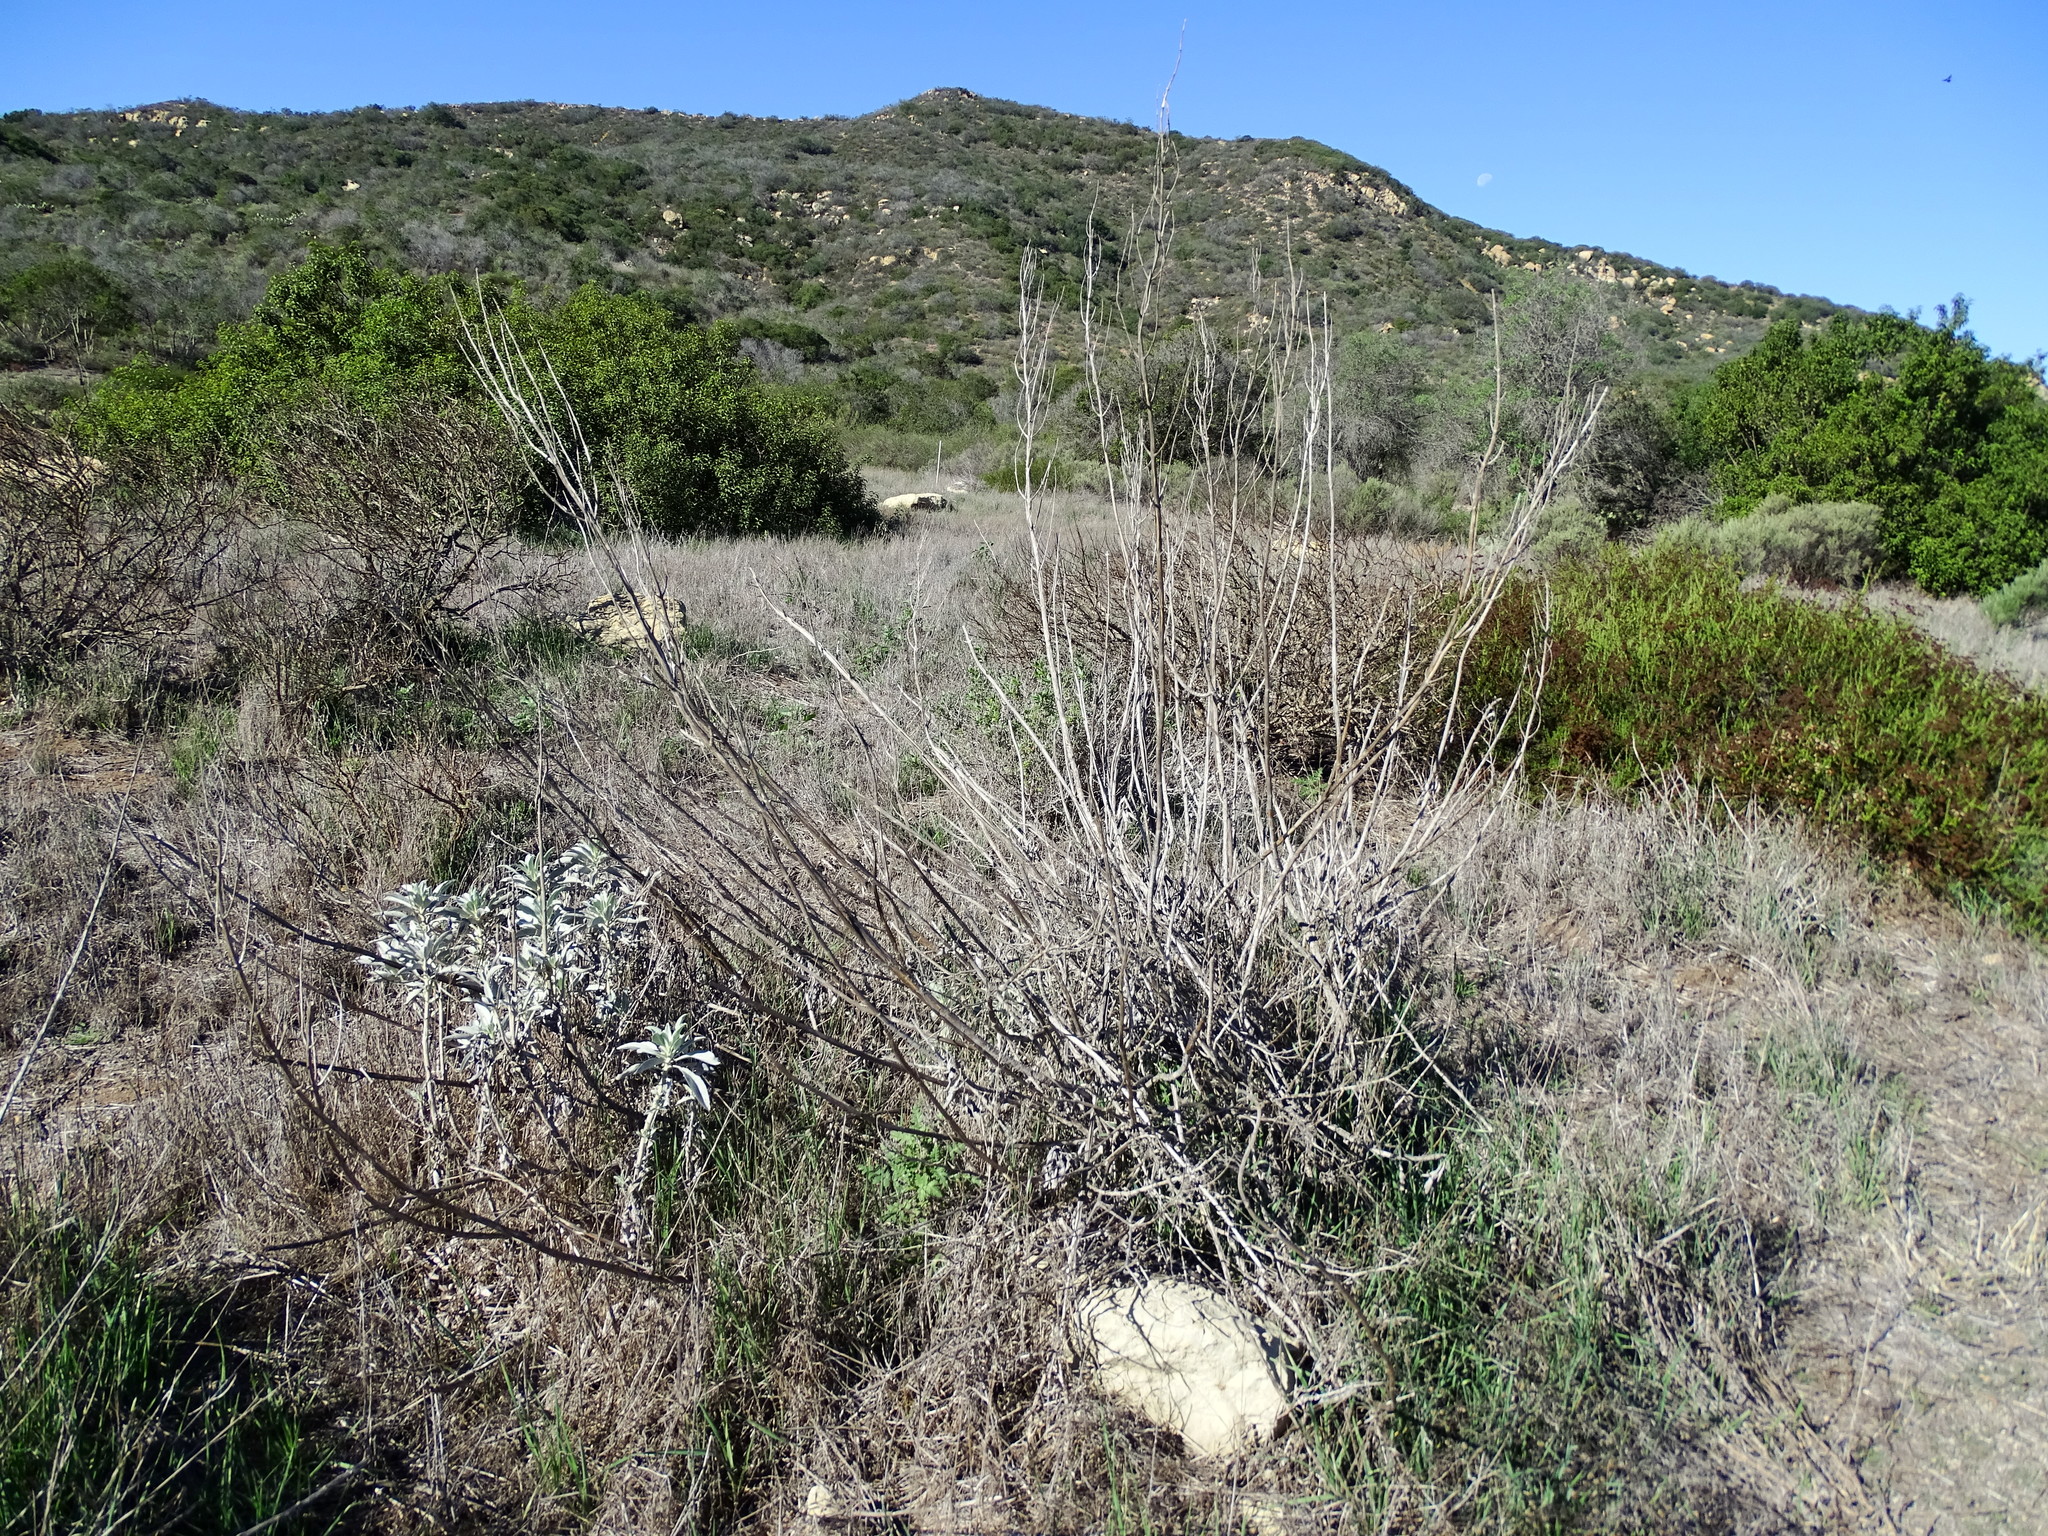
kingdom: Plantae
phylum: Tracheophyta
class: Magnoliopsida
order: Lamiales
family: Lamiaceae
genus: Salvia
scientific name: Salvia apiana
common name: White sage
